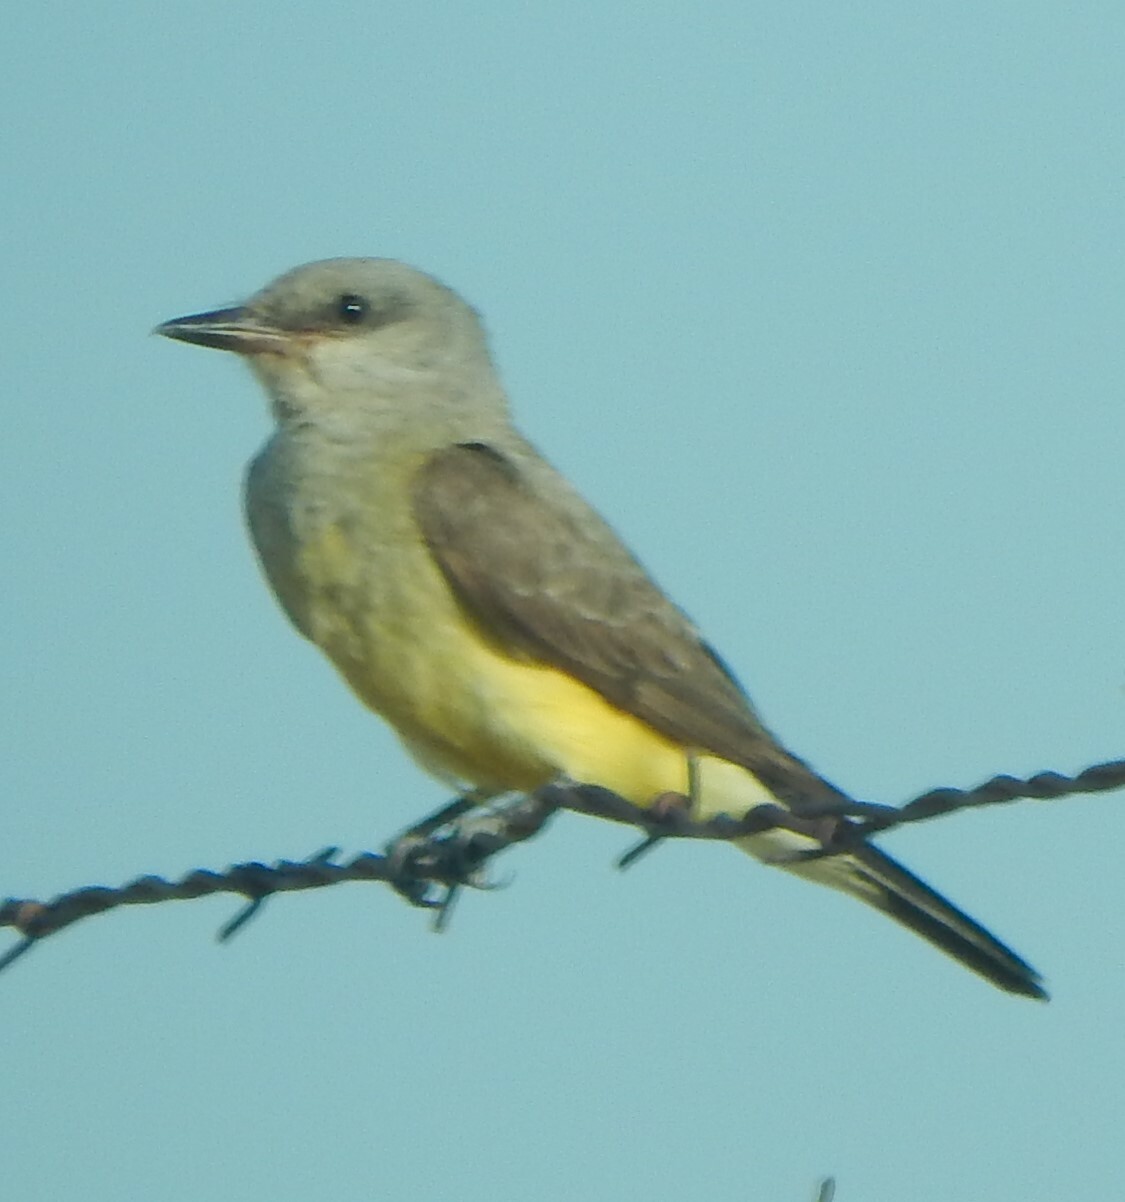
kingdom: Animalia
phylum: Chordata
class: Aves
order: Passeriformes
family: Tyrannidae
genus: Tyrannus
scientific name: Tyrannus verticalis
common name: Western kingbird
